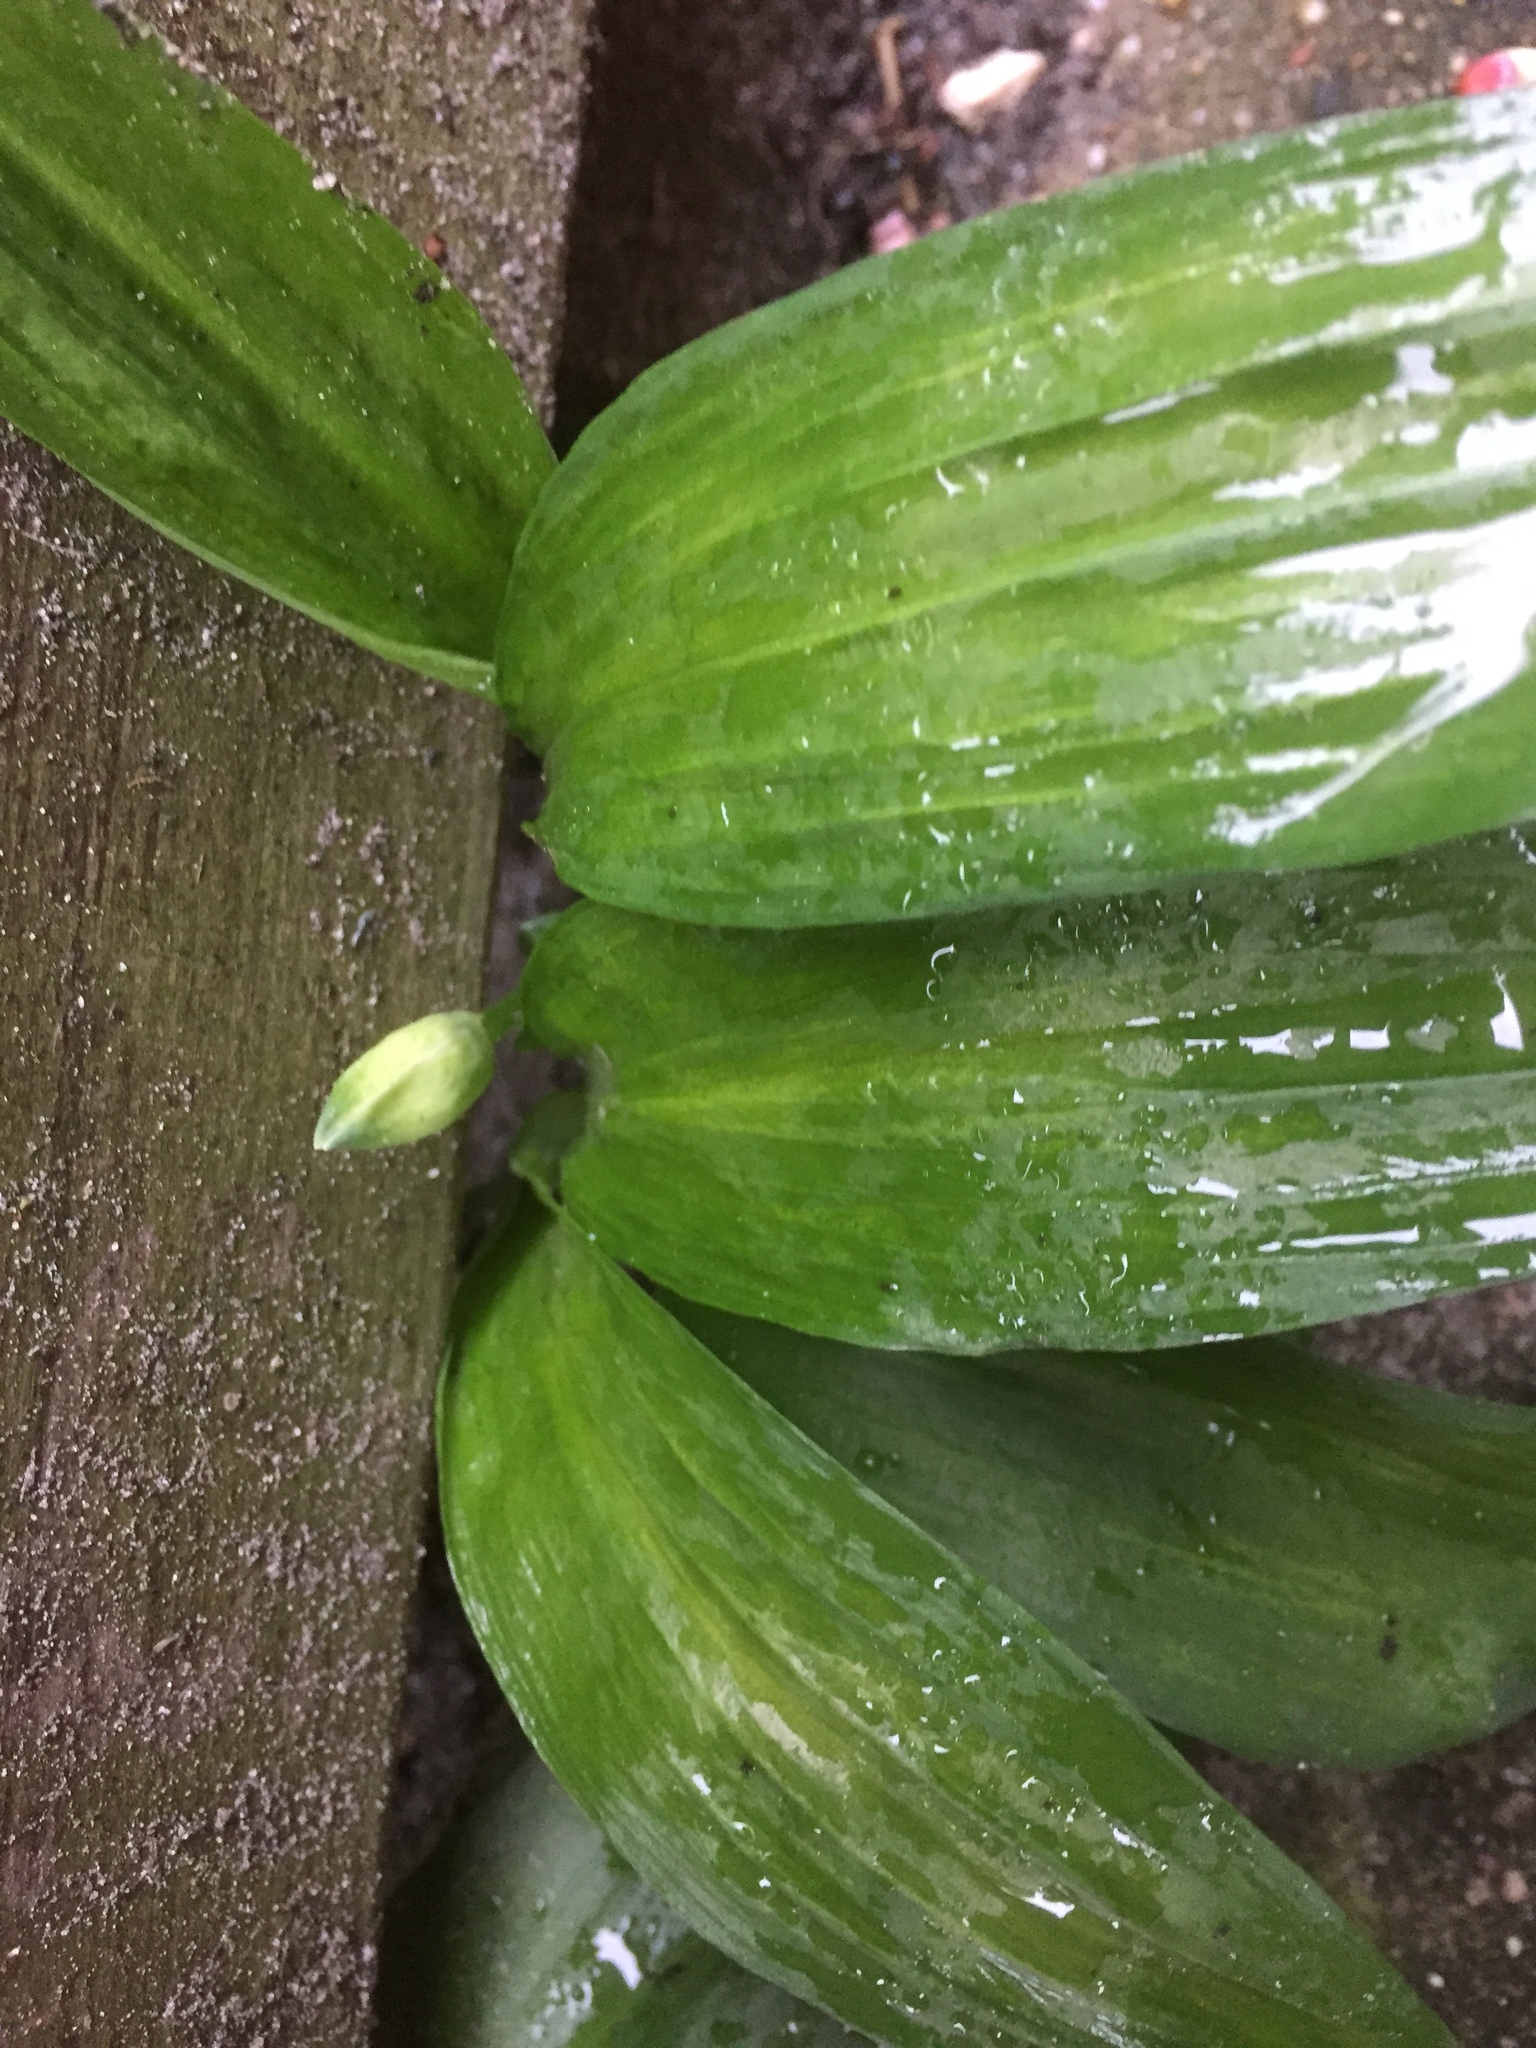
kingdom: Plantae
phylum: Tracheophyta
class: Liliopsida
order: Asparagales
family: Amaryllidaceae
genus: Allium
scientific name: Allium ursinum
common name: Ramsons
